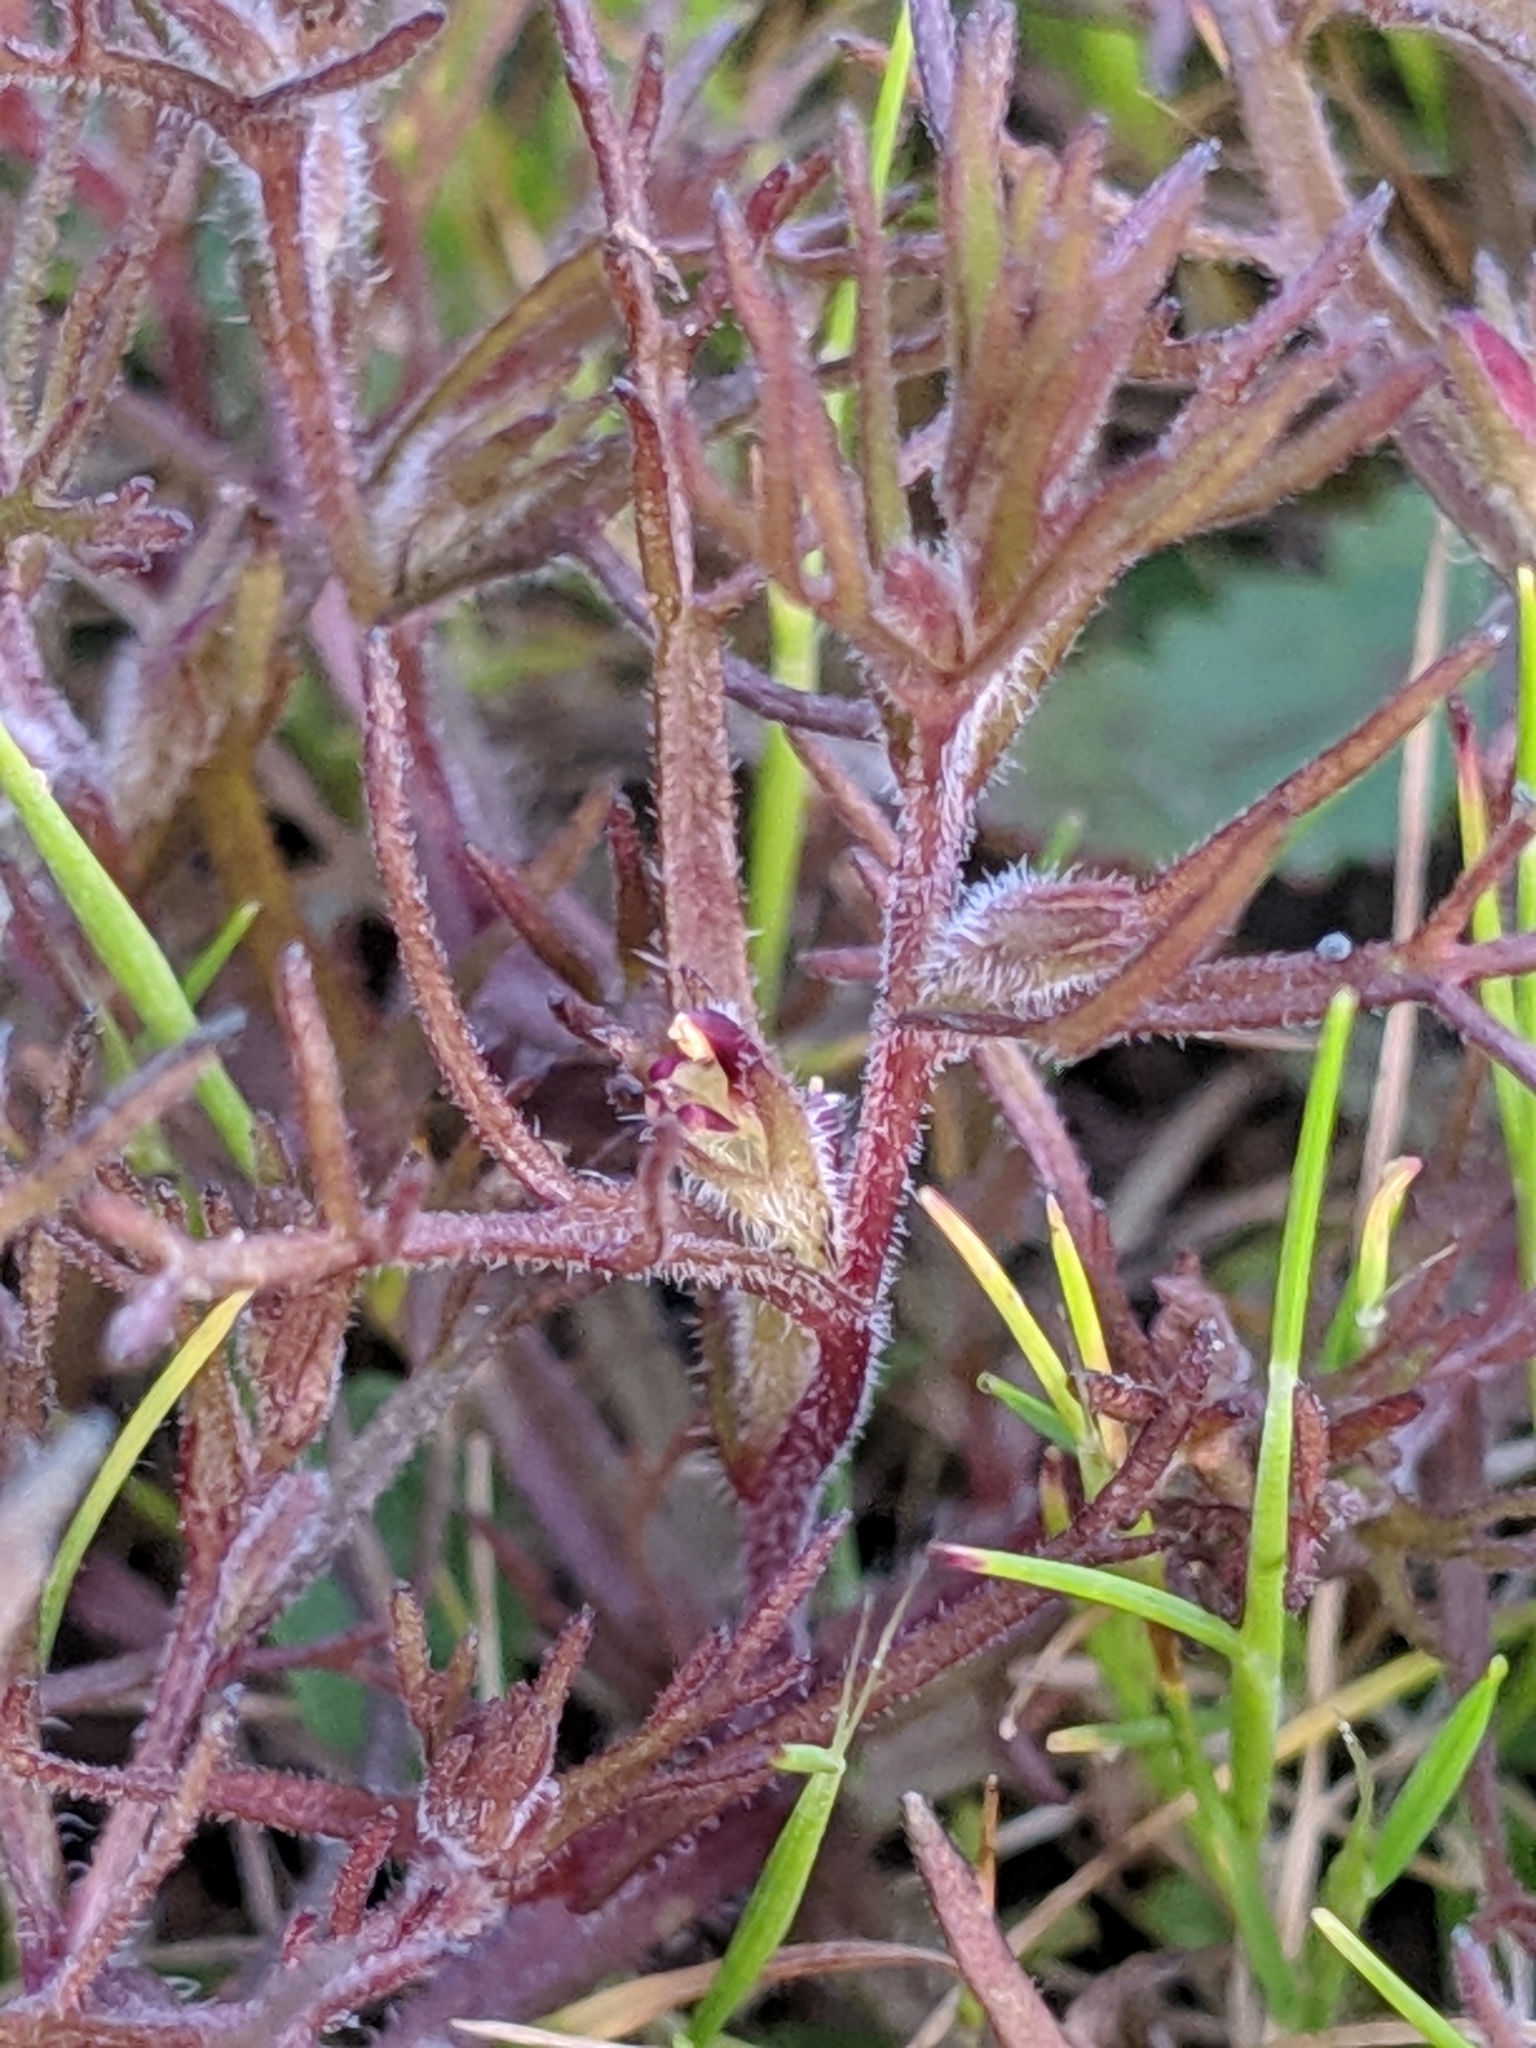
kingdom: Plantae
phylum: Tracheophyta
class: Magnoliopsida
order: Lamiales
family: Orobanchaceae
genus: Triphysaria
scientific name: Triphysaria pusilla
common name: Dwarf false owl-clover
